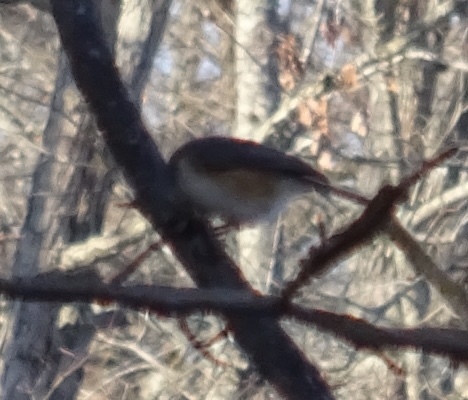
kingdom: Animalia
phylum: Chordata
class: Aves
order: Passeriformes
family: Paridae
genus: Baeolophus
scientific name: Baeolophus bicolor
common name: Tufted titmouse
